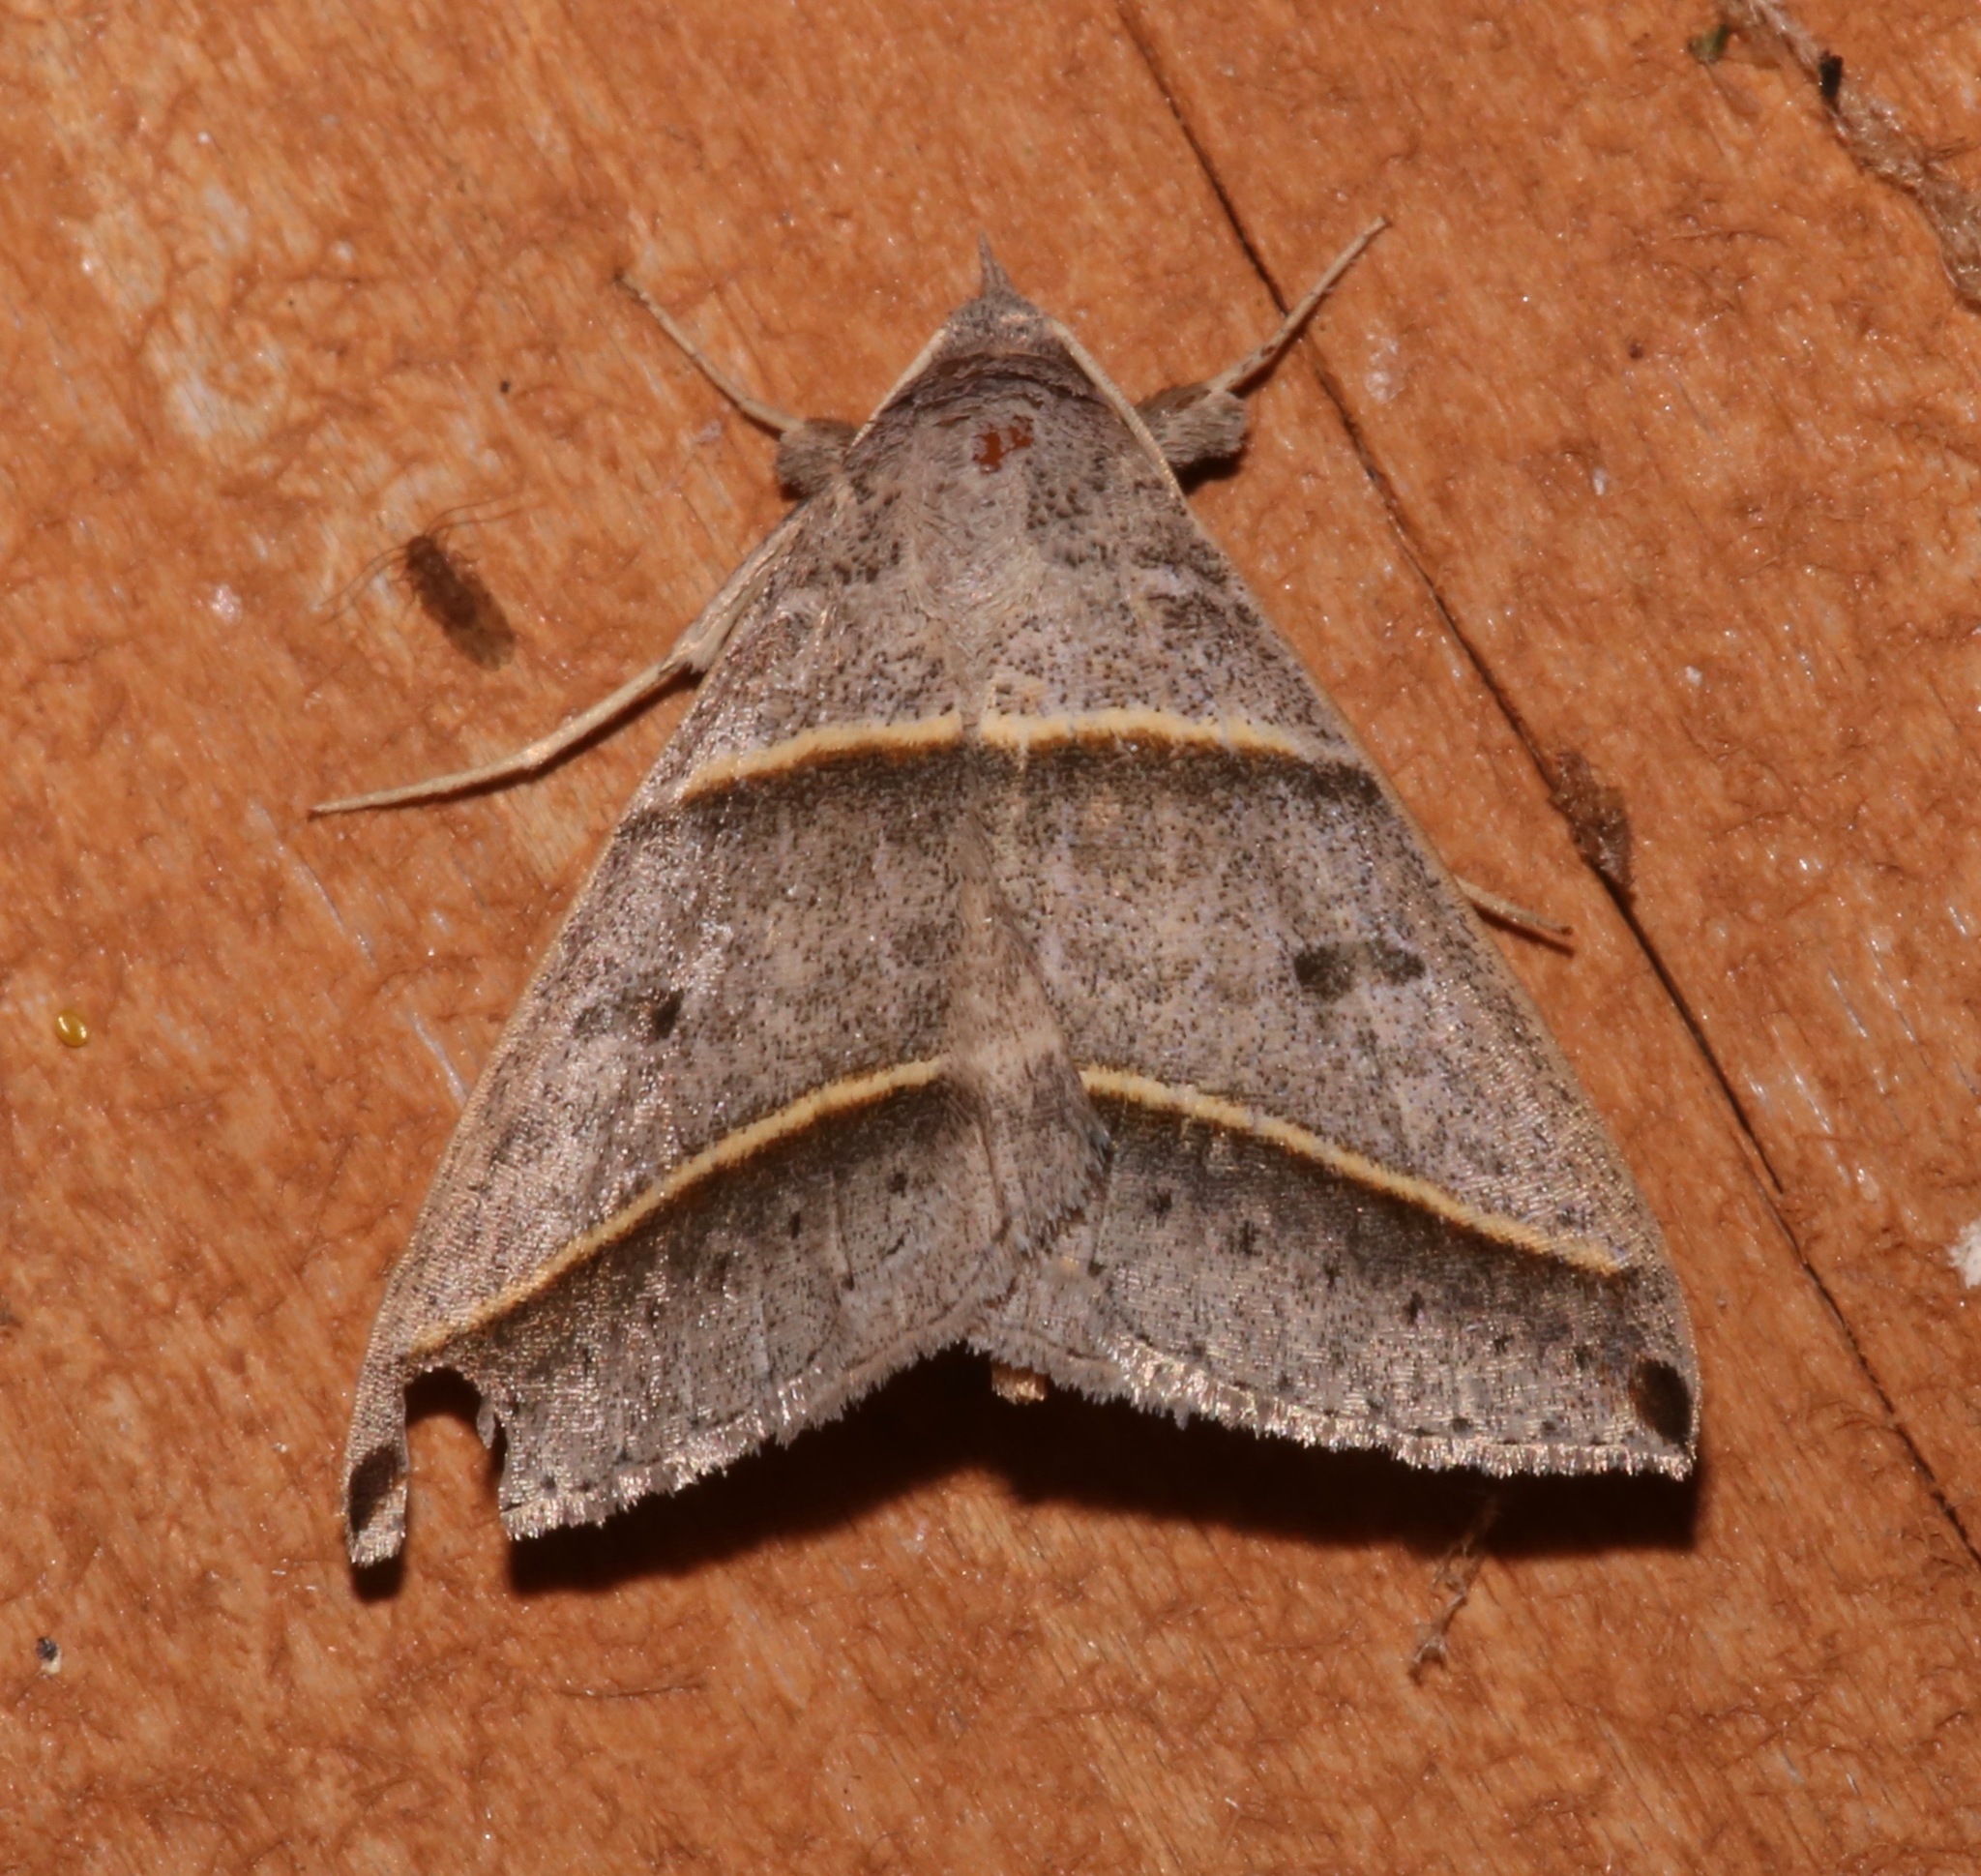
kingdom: Animalia
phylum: Arthropoda
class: Insecta
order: Lepidoptera
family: Erebidae
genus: Ptichodis
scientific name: Ptichodis vinculum
